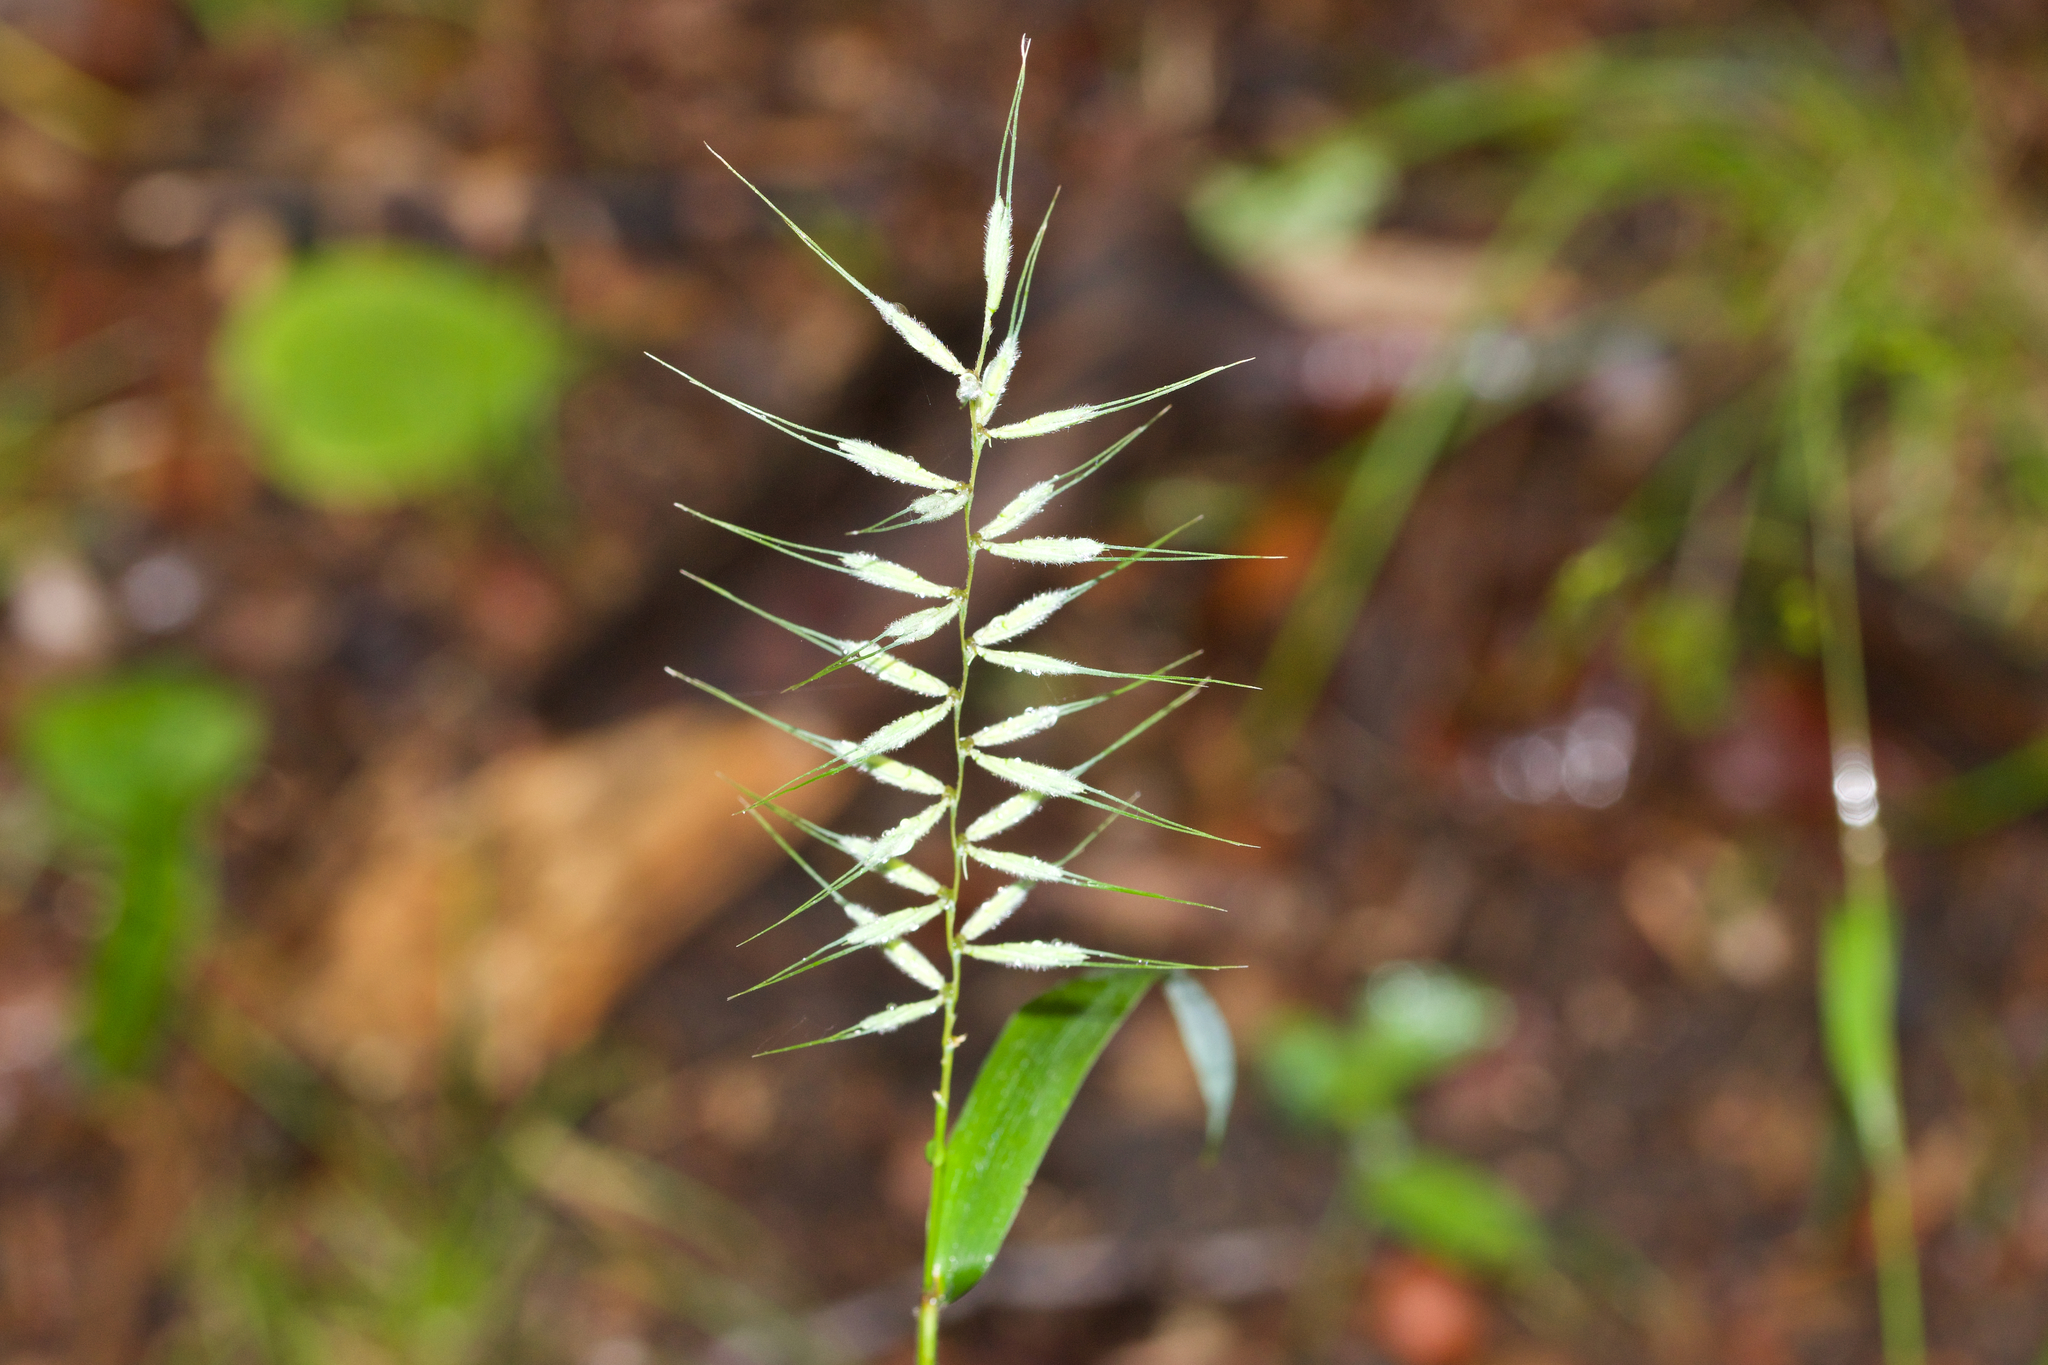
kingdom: Plantae
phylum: Tracheophyta
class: Liliopsida
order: Poales
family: Poaceae
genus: Elymus
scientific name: Elymus hystrix
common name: Bottlebrush grass
